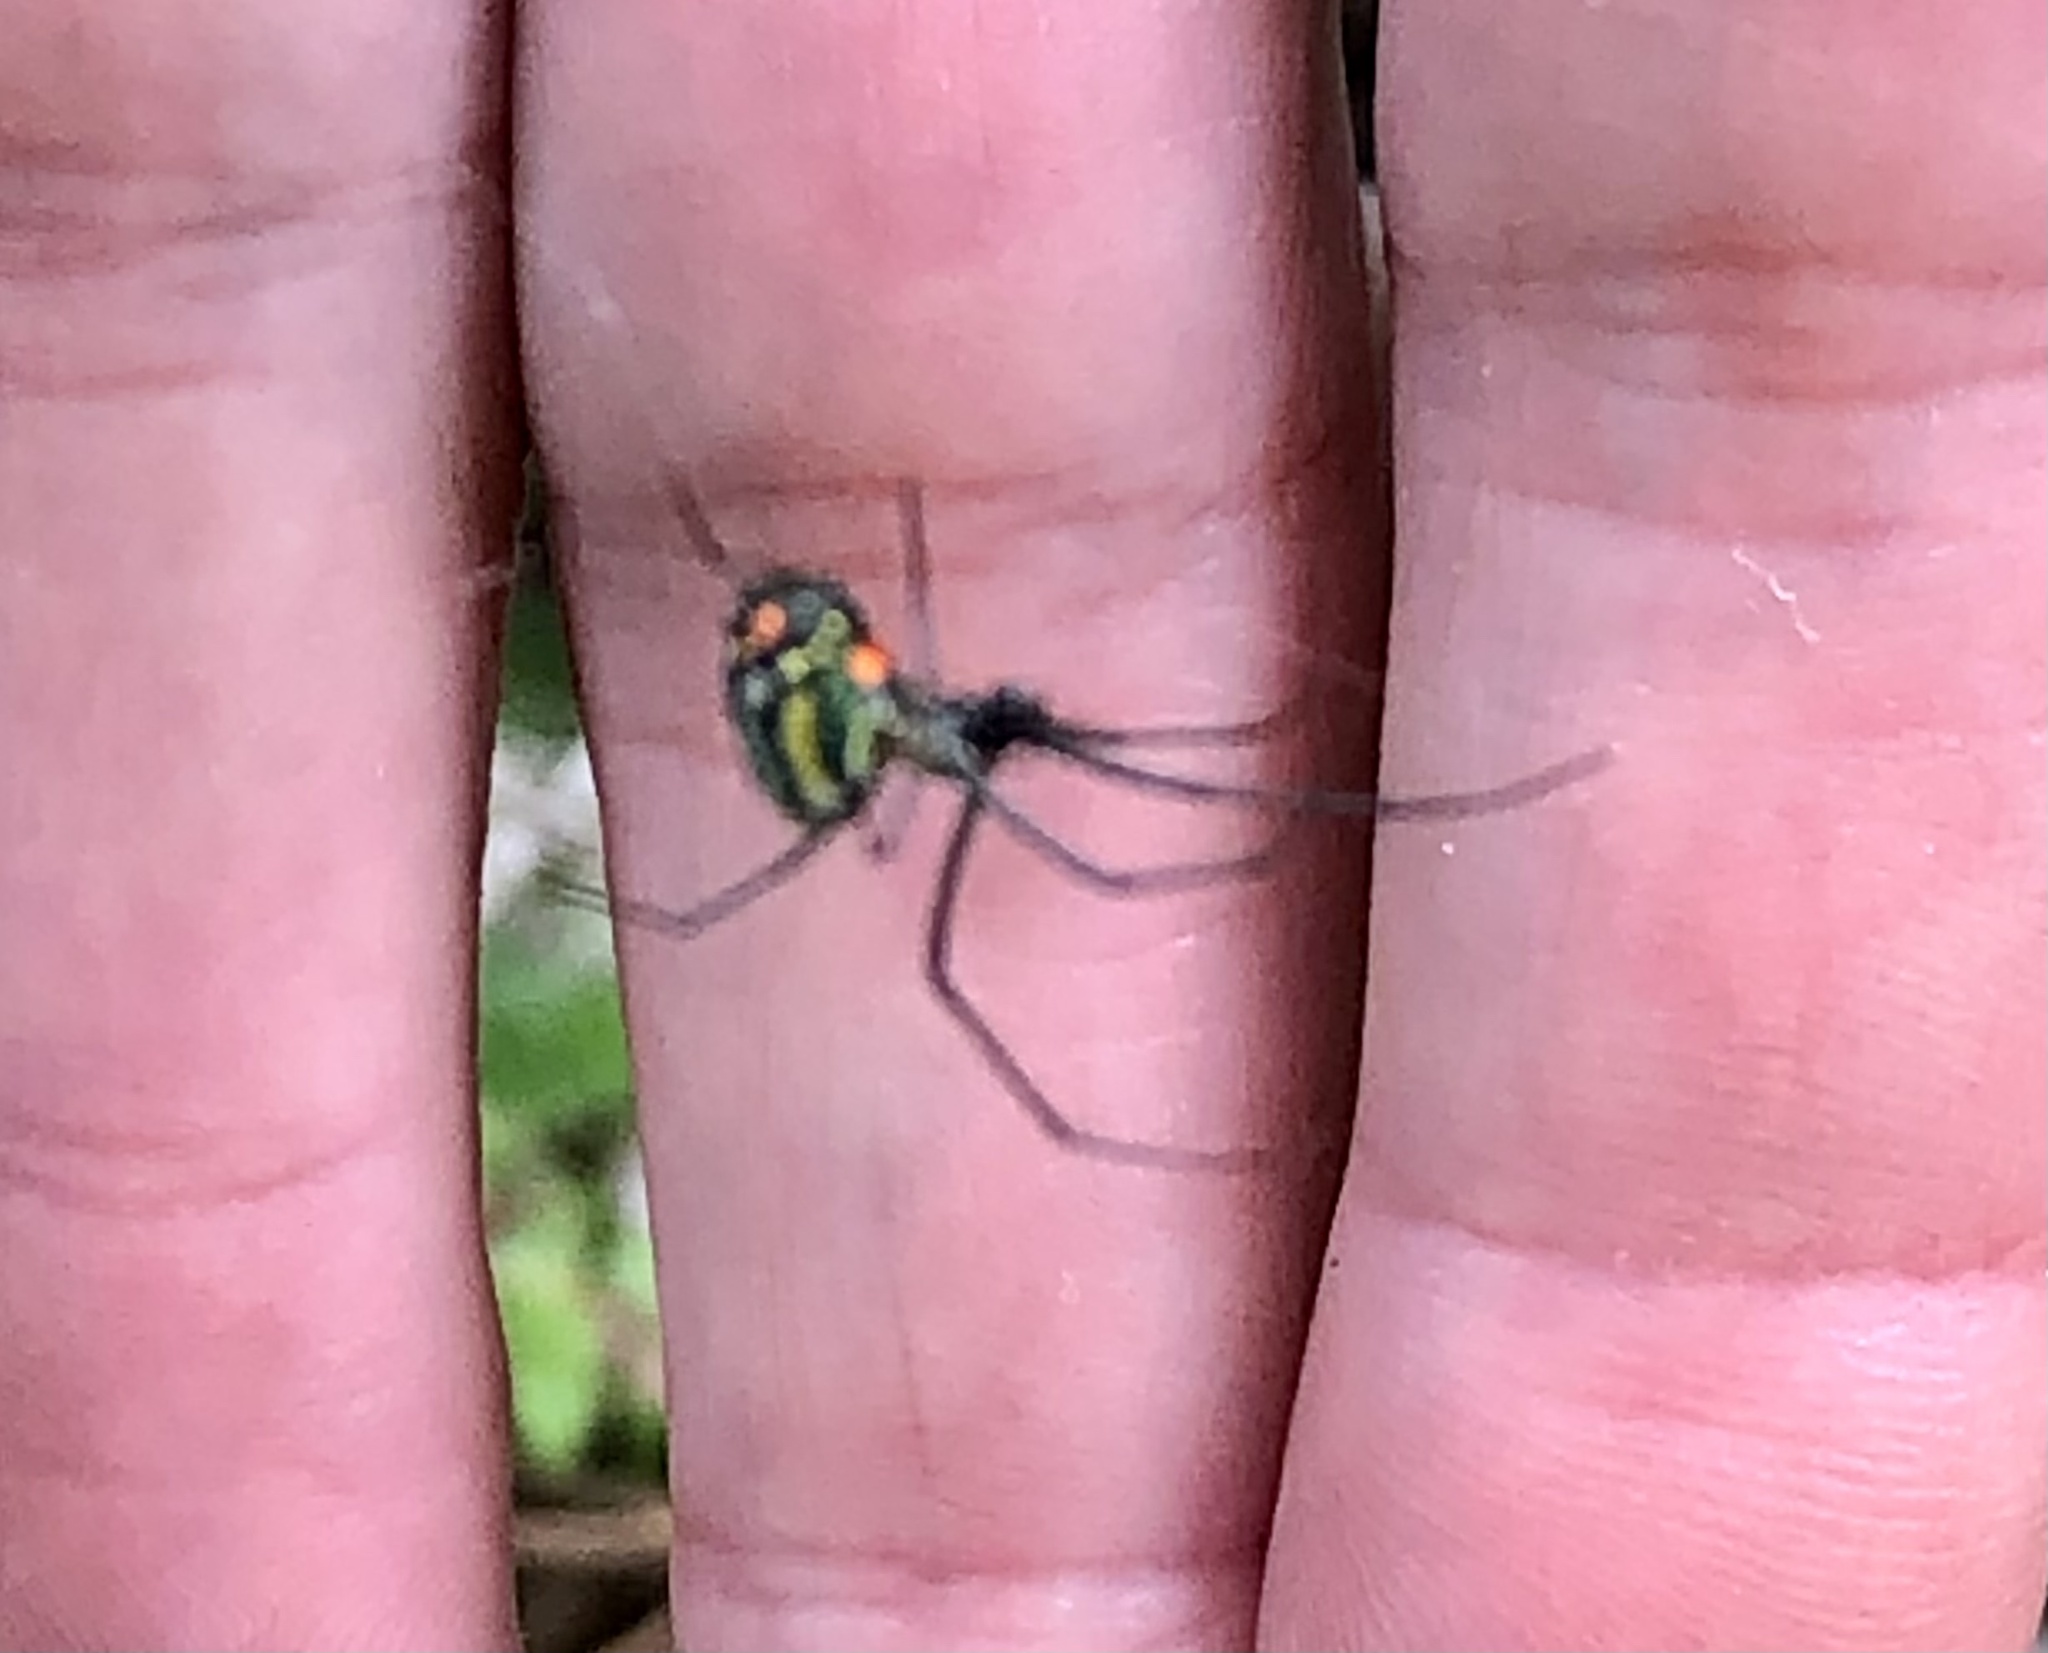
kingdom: Animalia
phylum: Arthropoda
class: Arachnida
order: Araneae
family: Tetragnathidae
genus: Leucauge
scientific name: Leucauge argyrobapta
